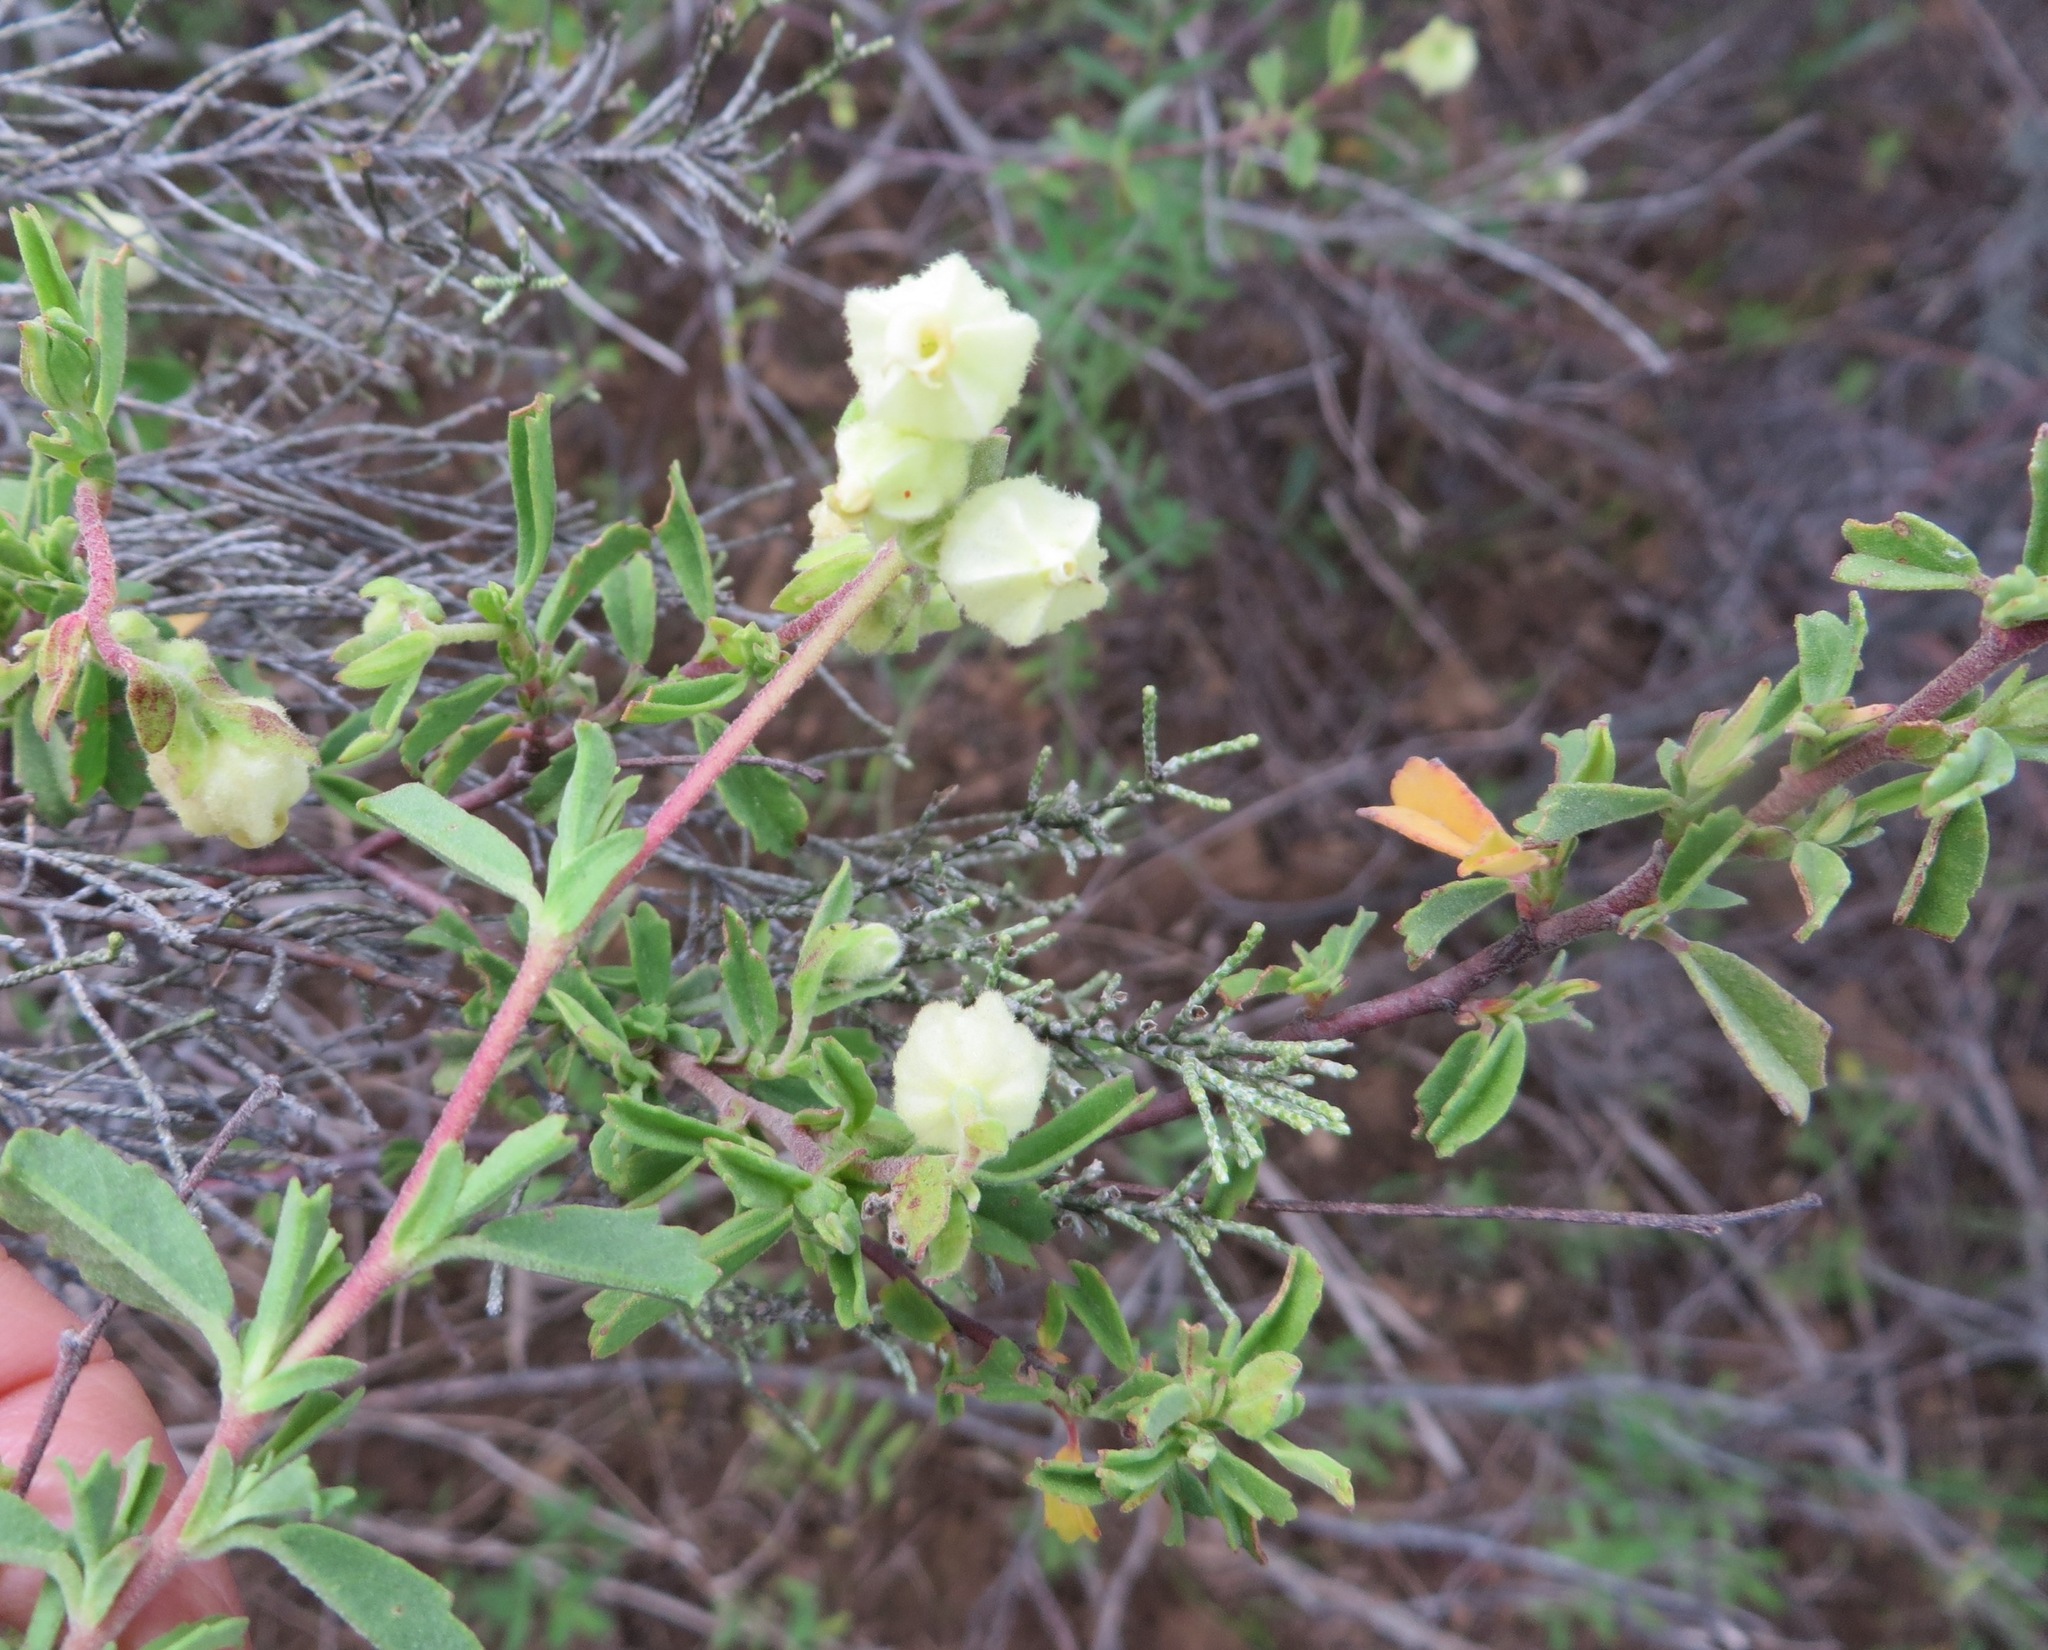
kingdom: Plantae
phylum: Tracheophyta
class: Magnoliopsida
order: Malvales
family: Malvaceae
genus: Hermannia
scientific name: Hermannia hyssopifolia
